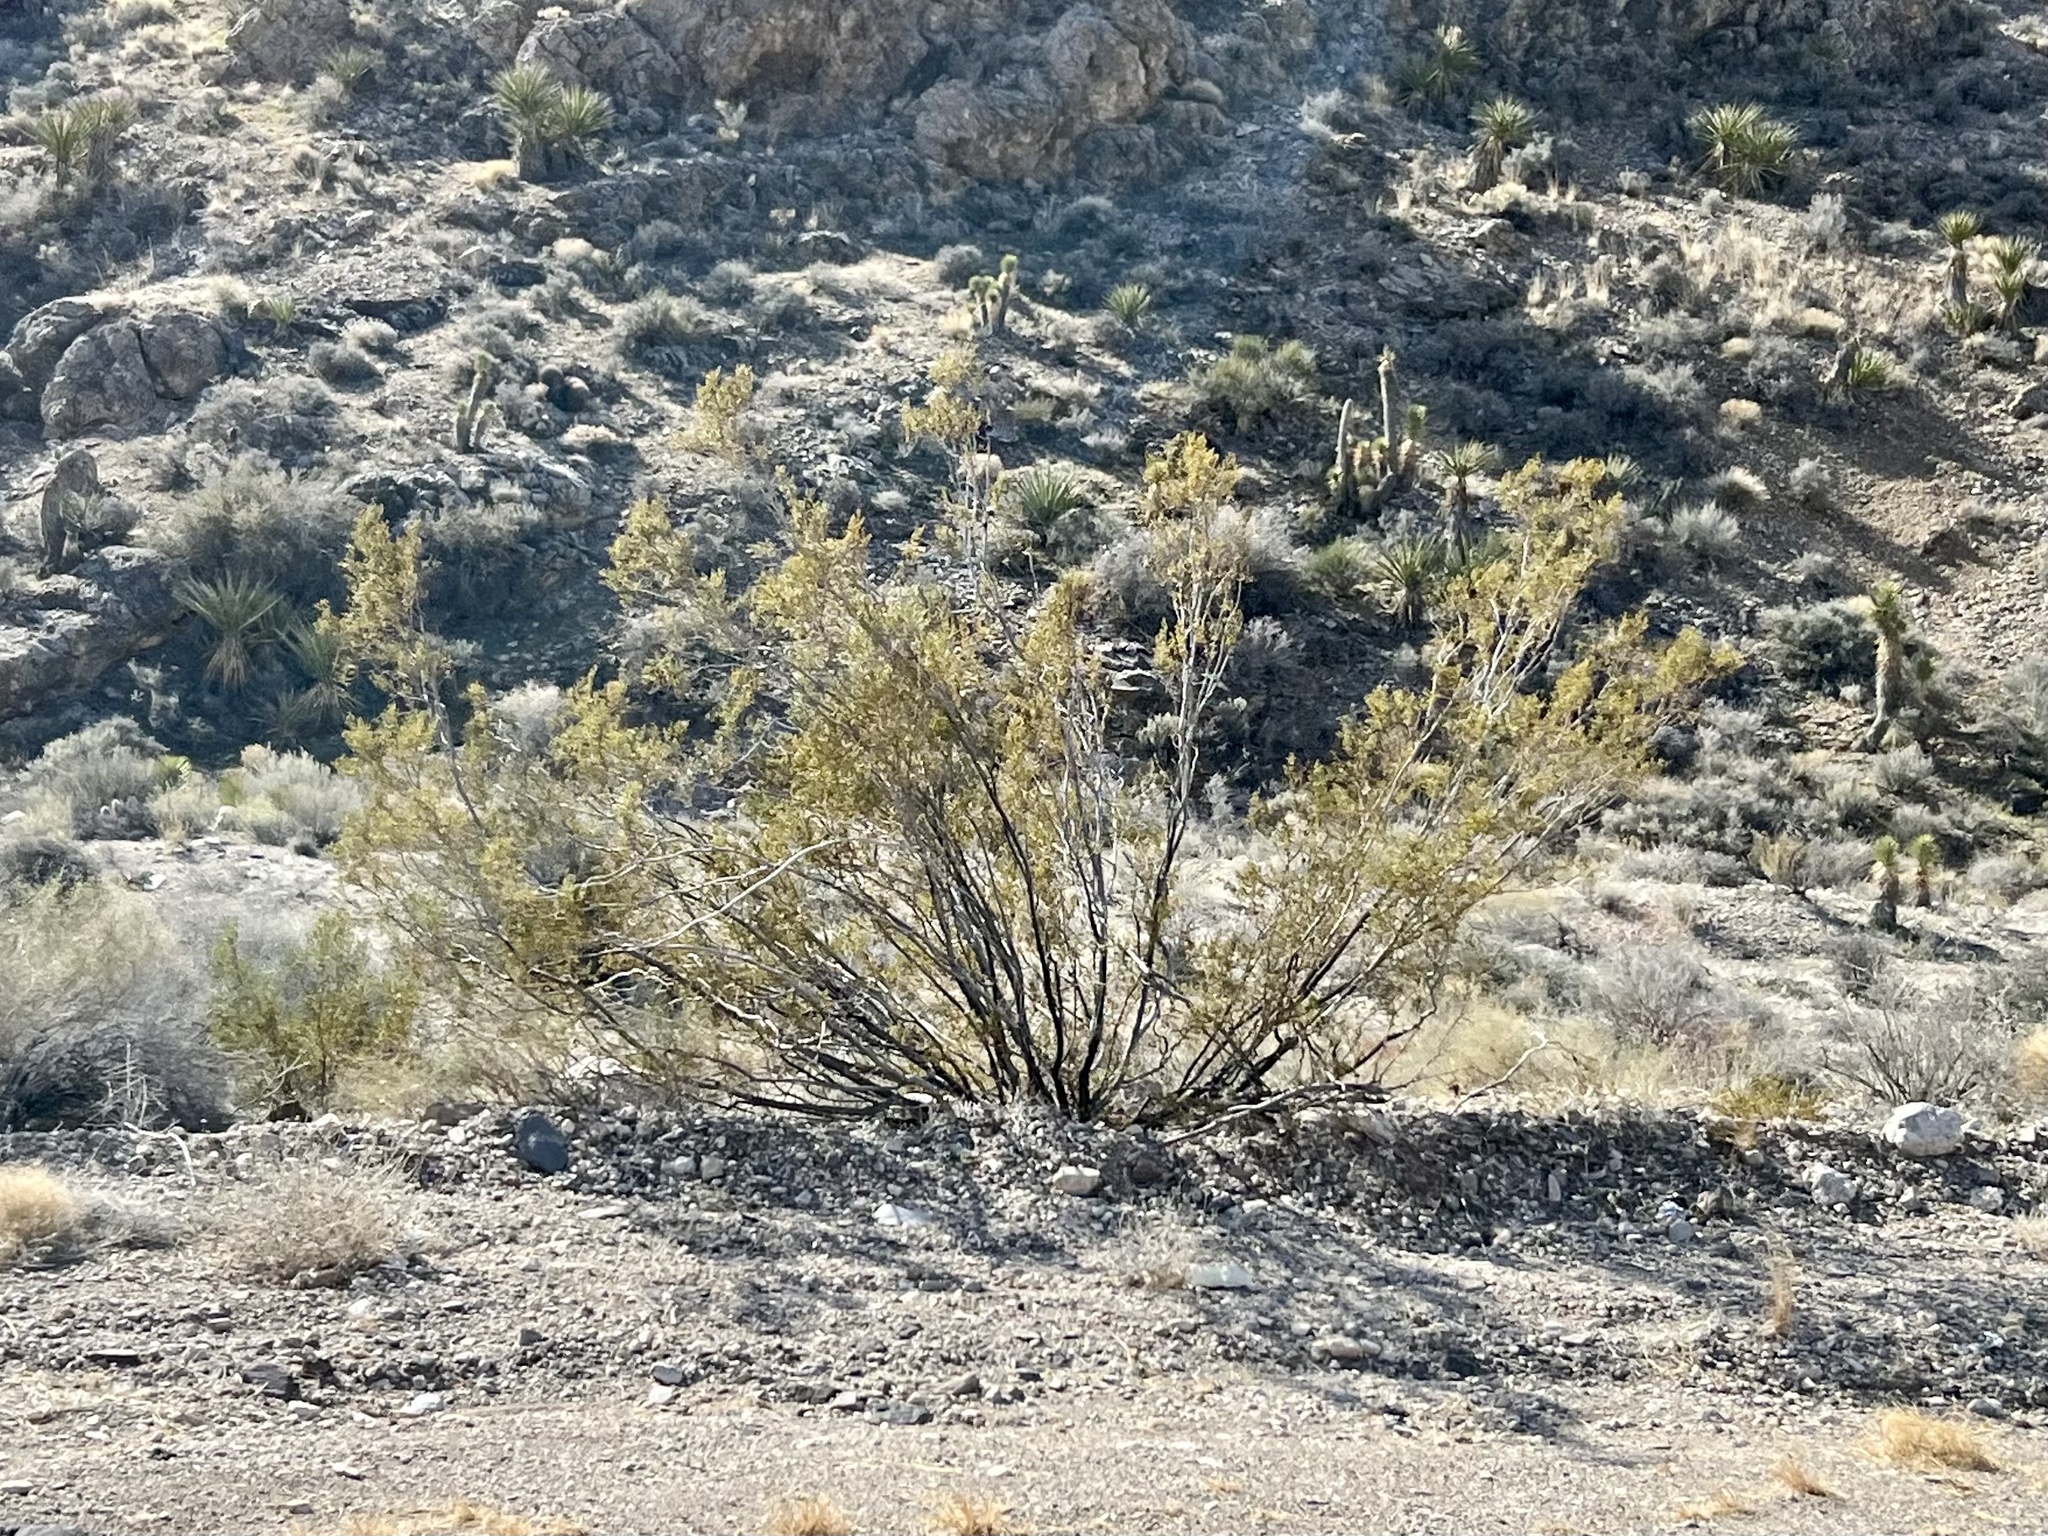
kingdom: Plantae
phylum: Tracheophyta
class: Magnoliopsida
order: Zygophyllales
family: Zygophyllaceae
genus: Larrea
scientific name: Larrea tridentata
